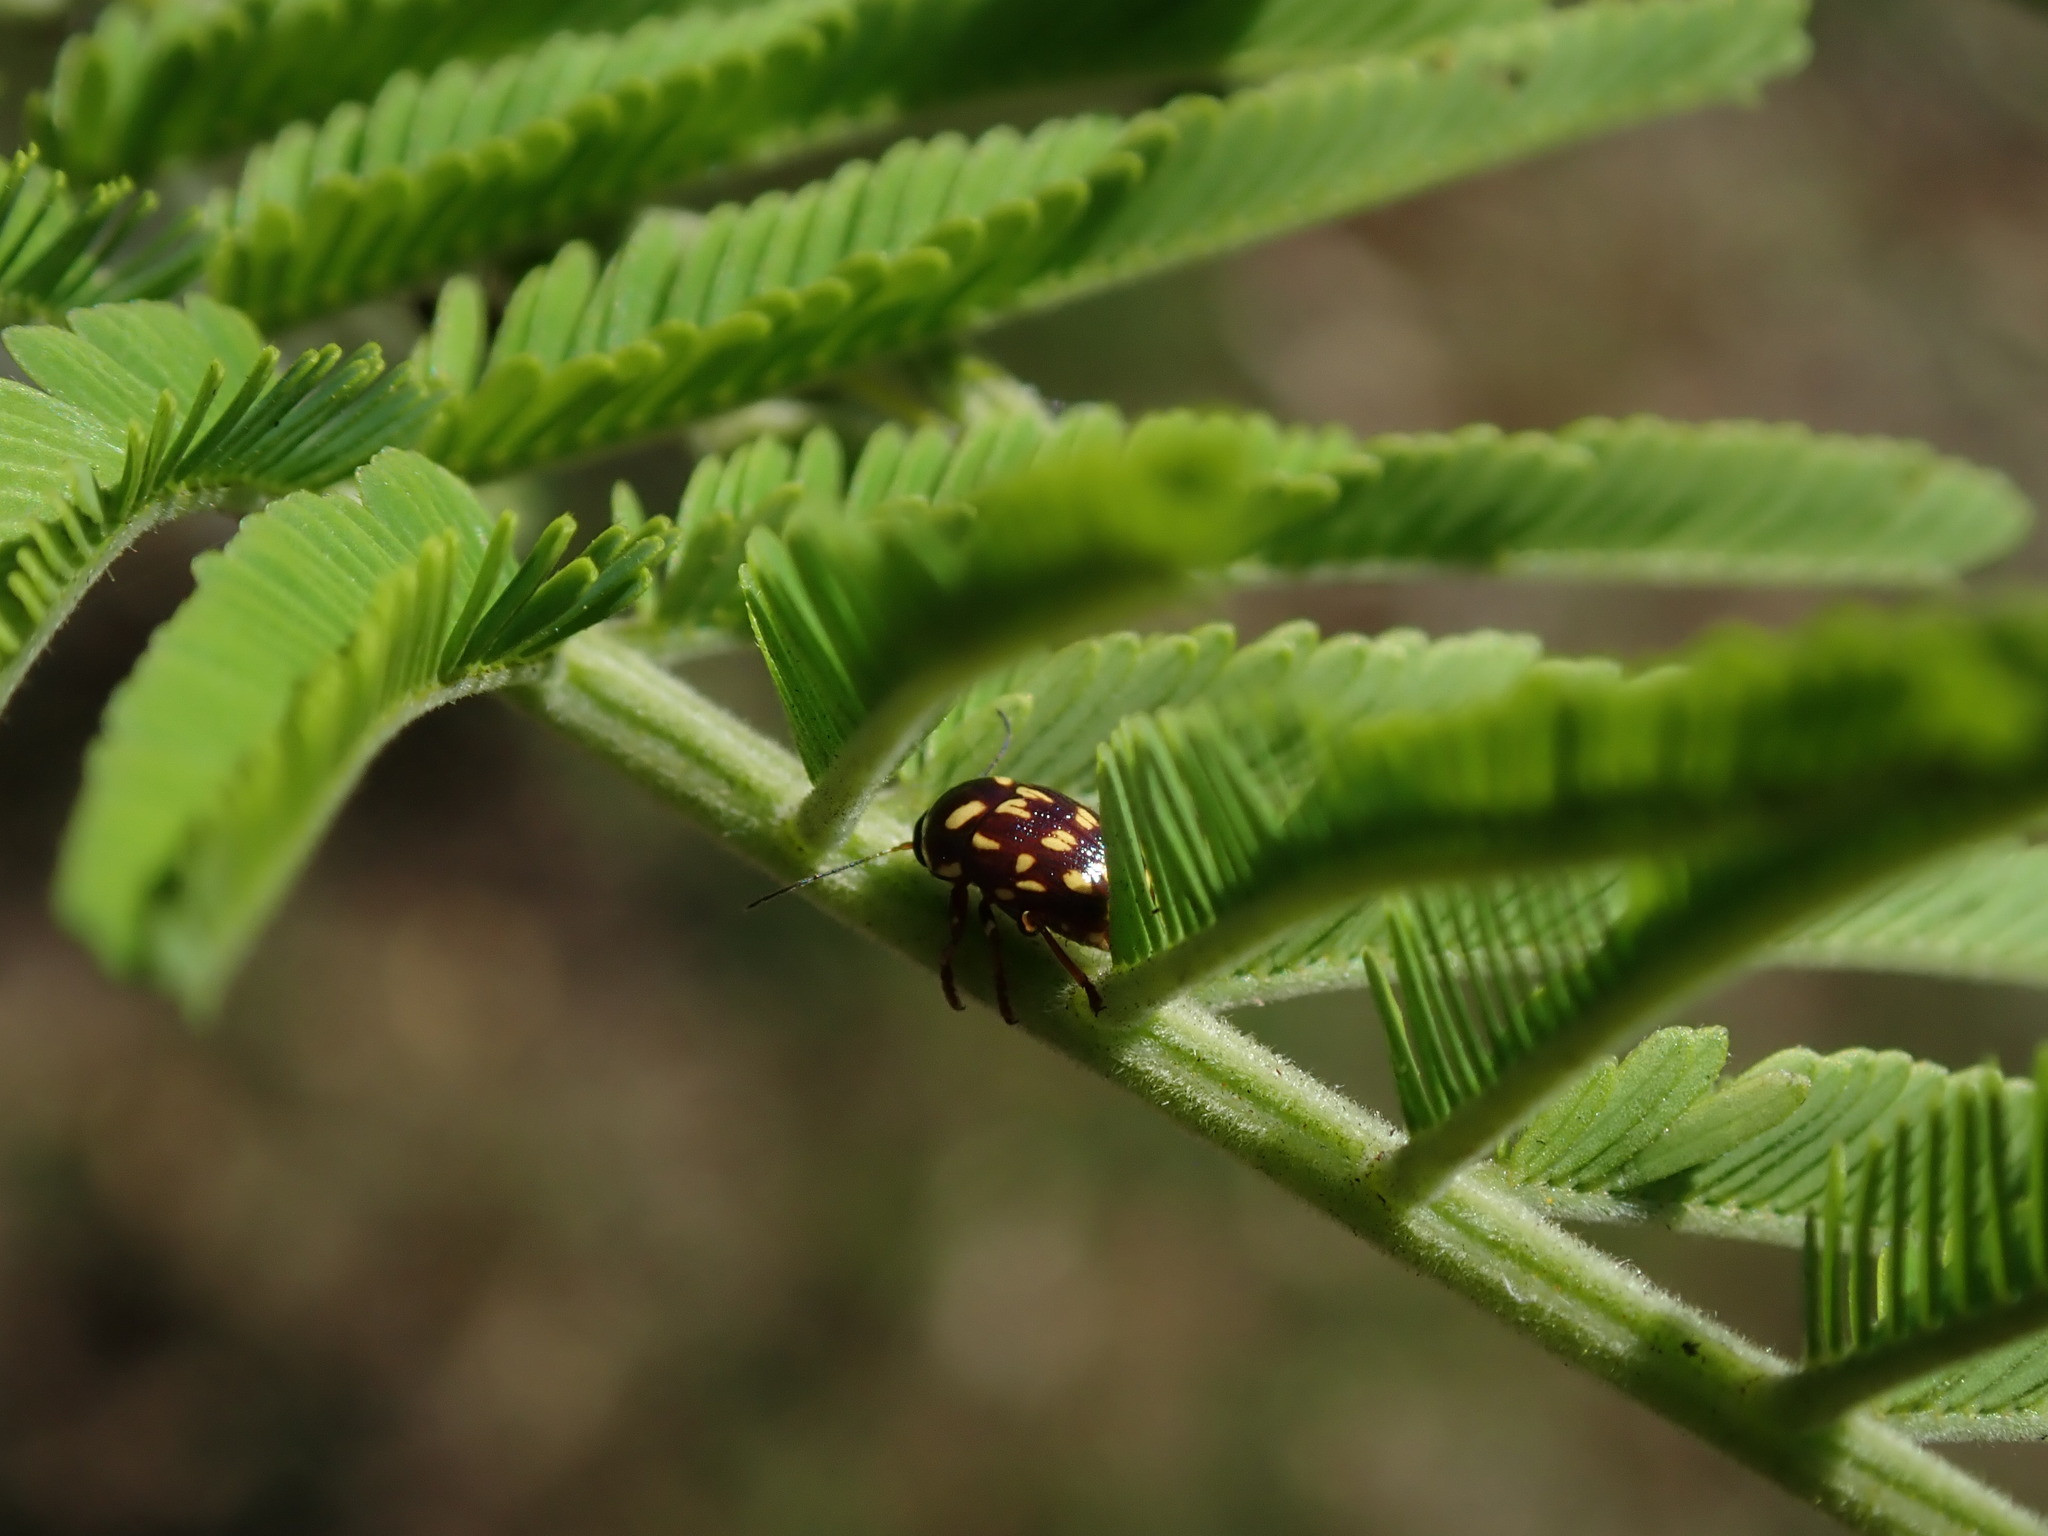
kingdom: Animalia
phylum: Arthropoda
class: Insecta
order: Coleoptera
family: Chrysomelidae
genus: Cryptocephalus
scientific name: Cryptocephalus nigrocinctus
